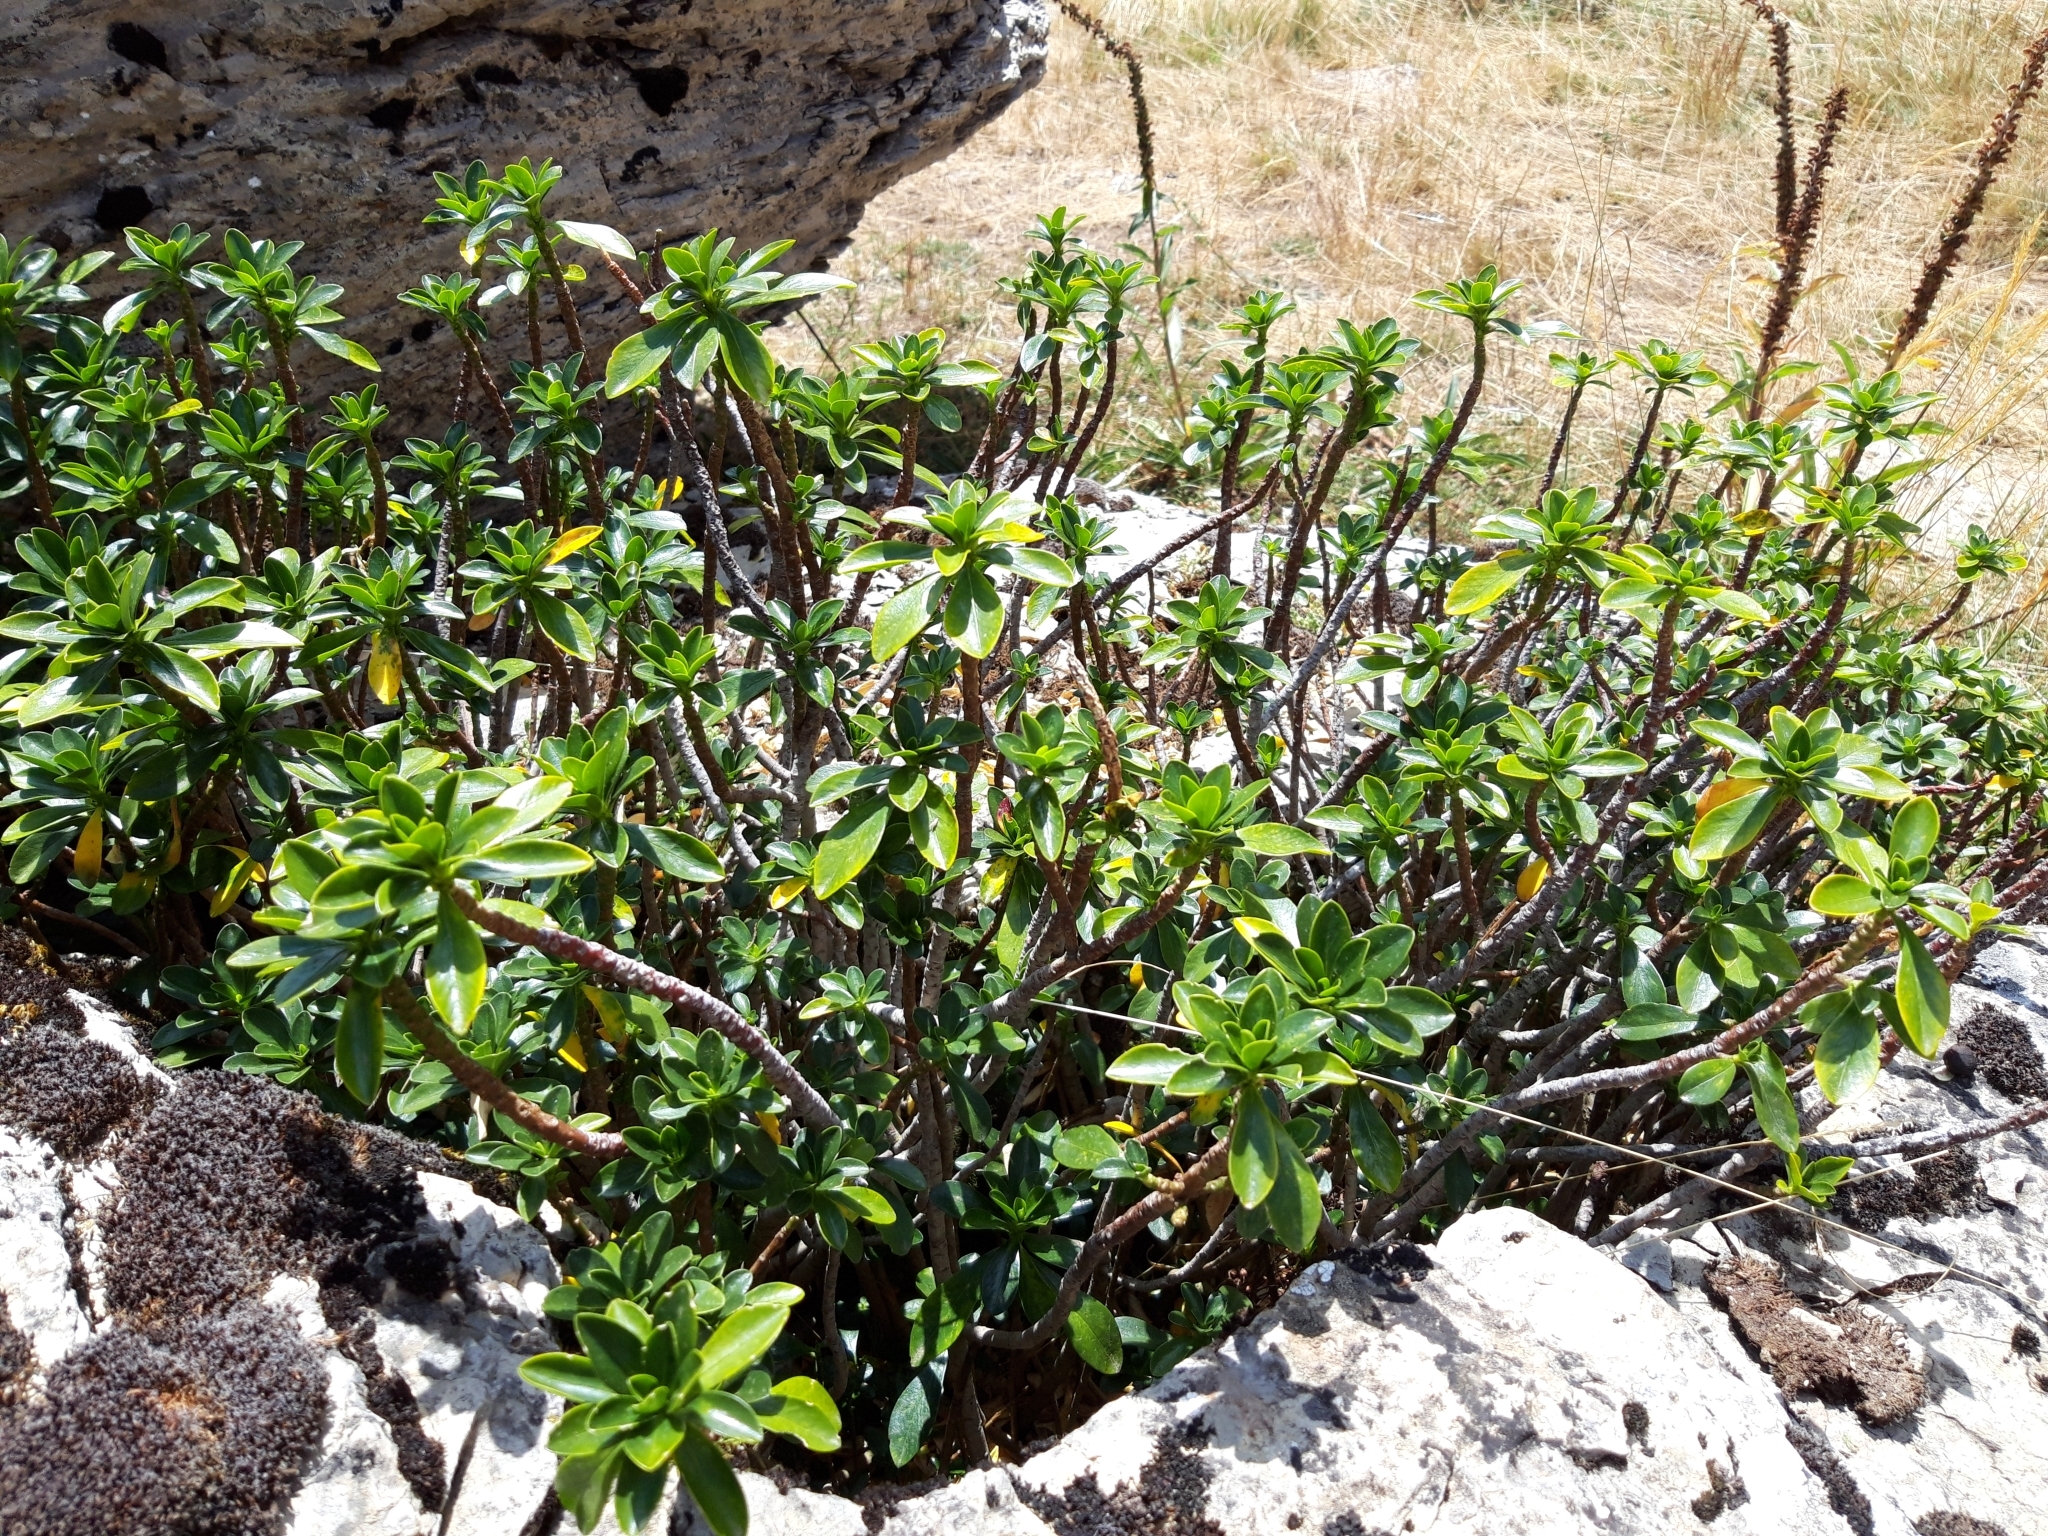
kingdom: Plantae
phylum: Tracheophyta
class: Magnoliopsida
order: Malvales
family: Thymelaeaceae
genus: Daphne
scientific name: Daphne laureola
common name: Spurge-laurel
